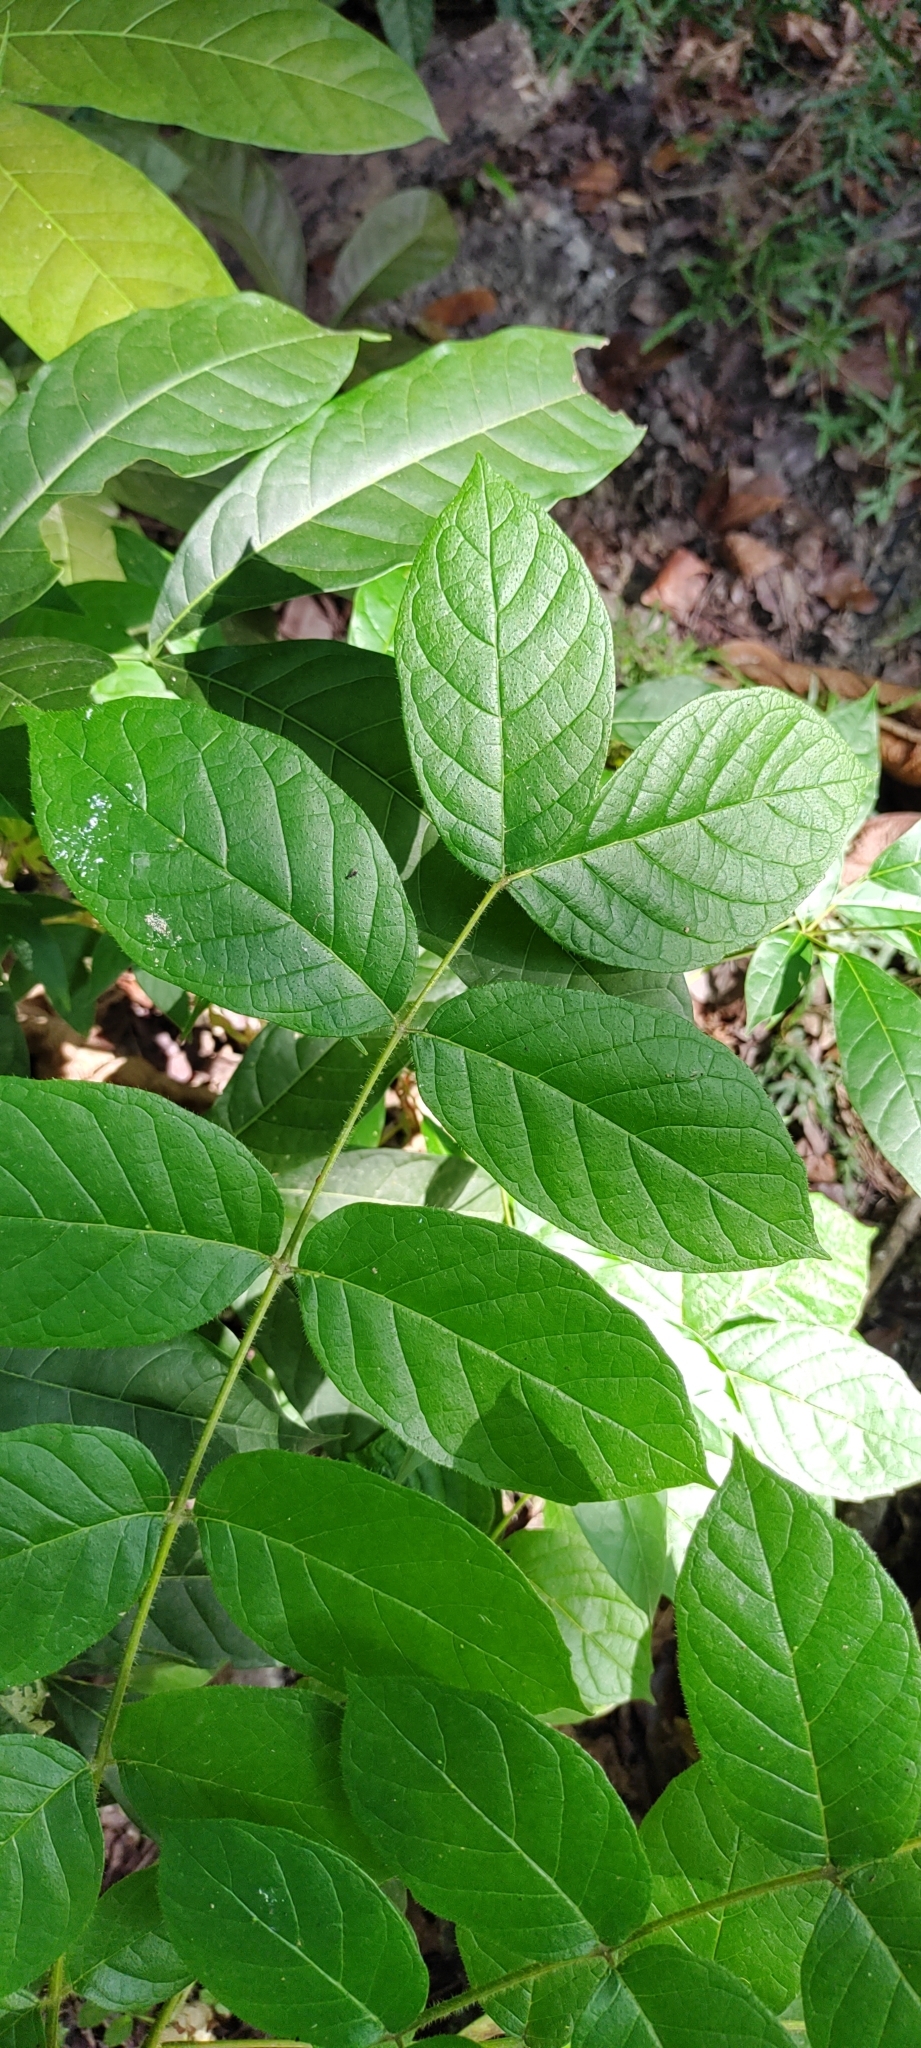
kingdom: Plantae
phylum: Tracheophyta
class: Magnoliopsida
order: Lamiales
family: Bignoniaceae
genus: Spathodea
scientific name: Spathodea campanulata
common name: African tuliptree
